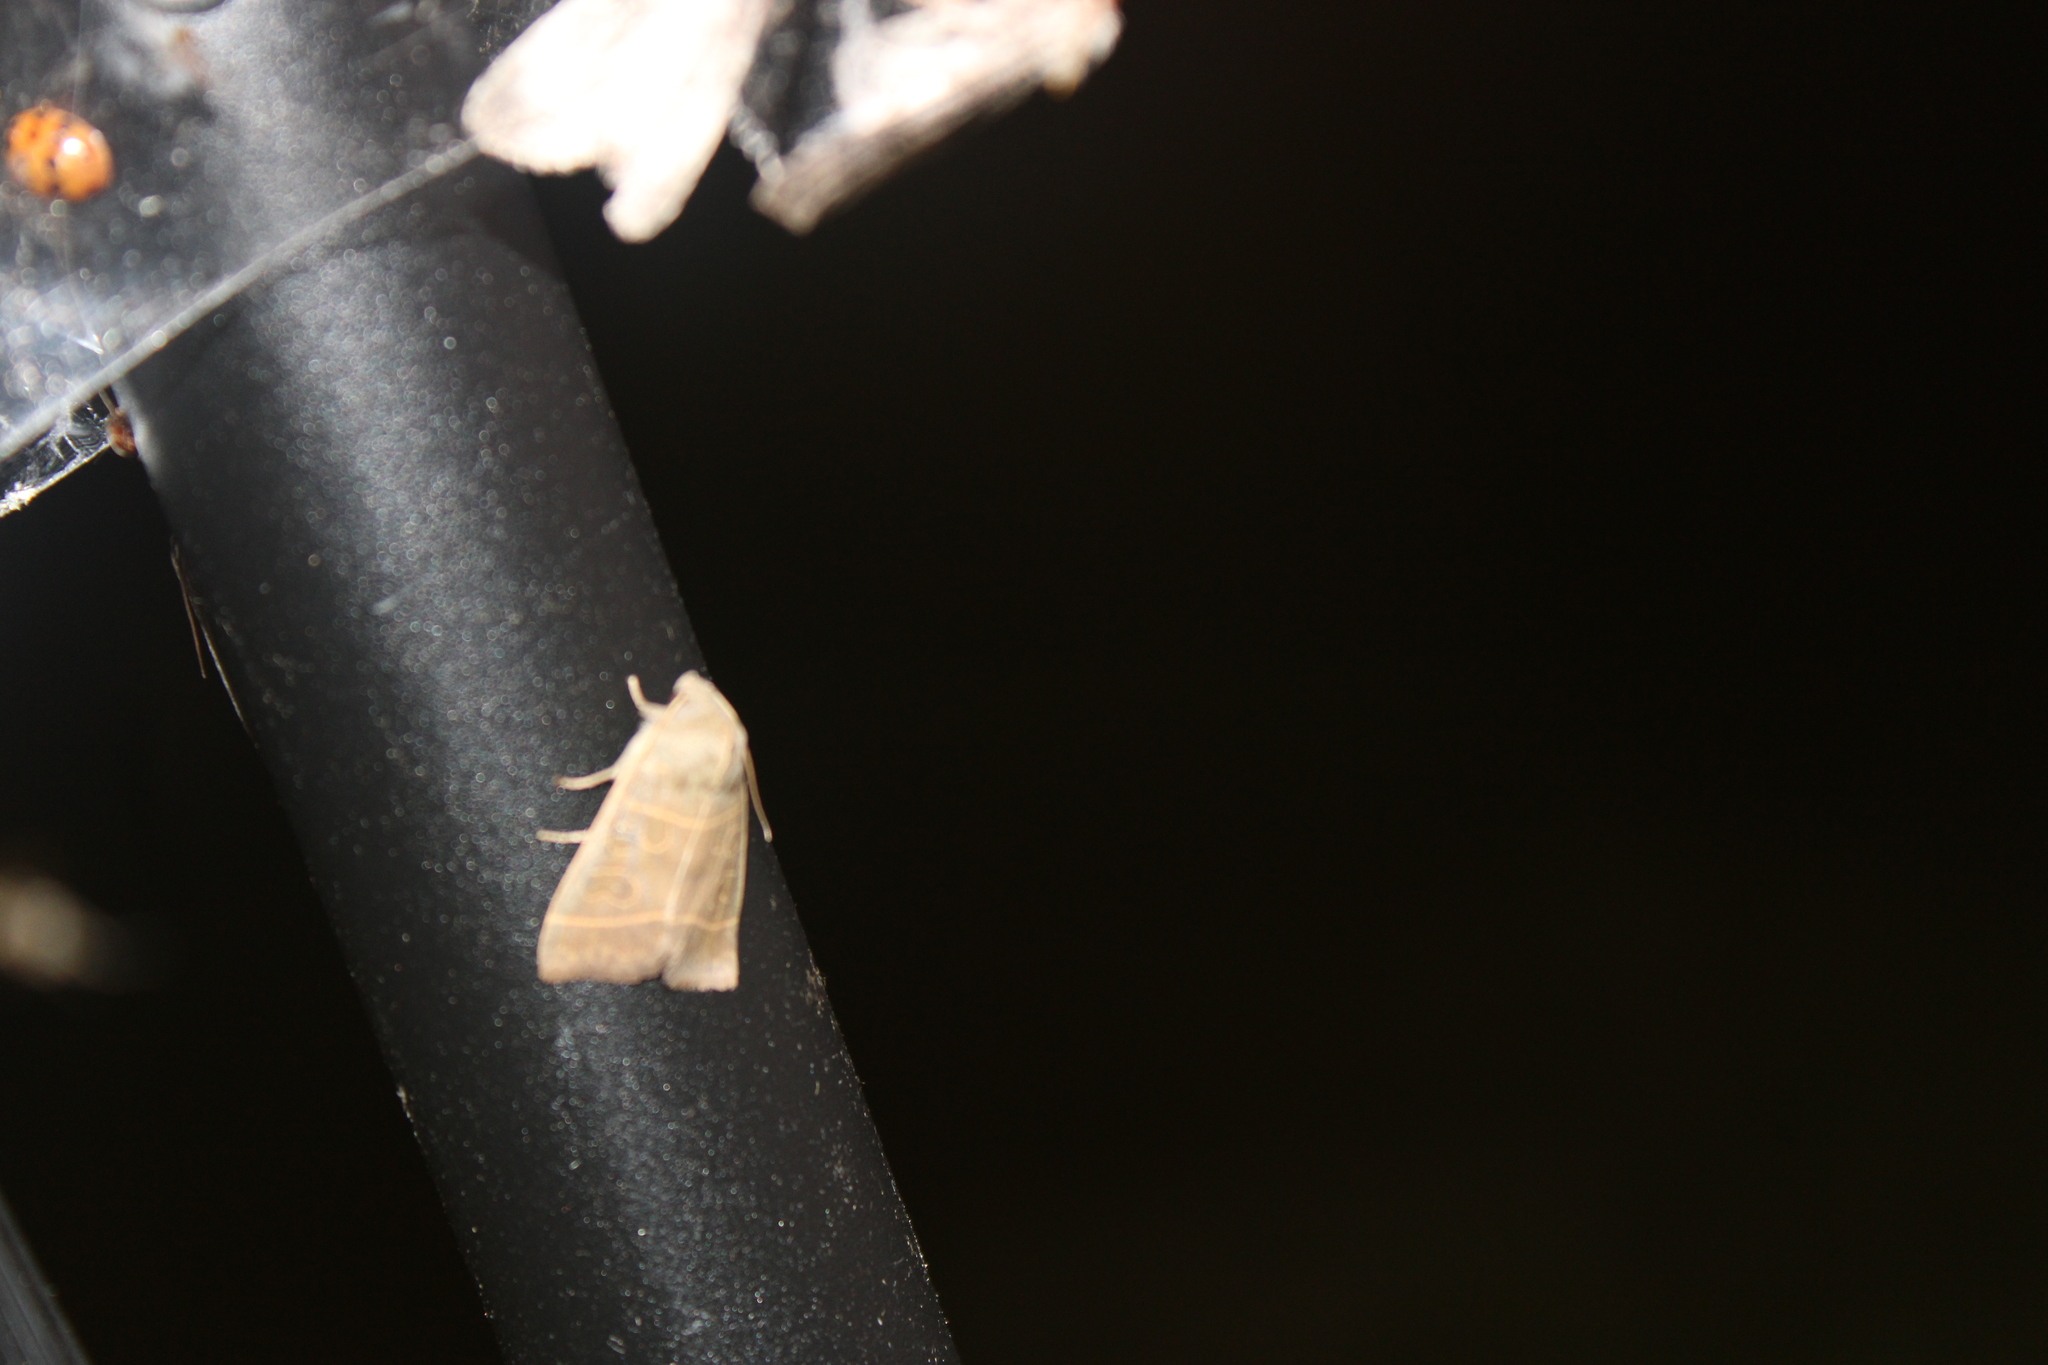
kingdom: Animalia
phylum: Arthropoda
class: Insecta
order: Lepidoptera
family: Noctuidae
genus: Ipimorpha
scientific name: Ipimorpha pleonectusa
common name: Even-lined sallow
